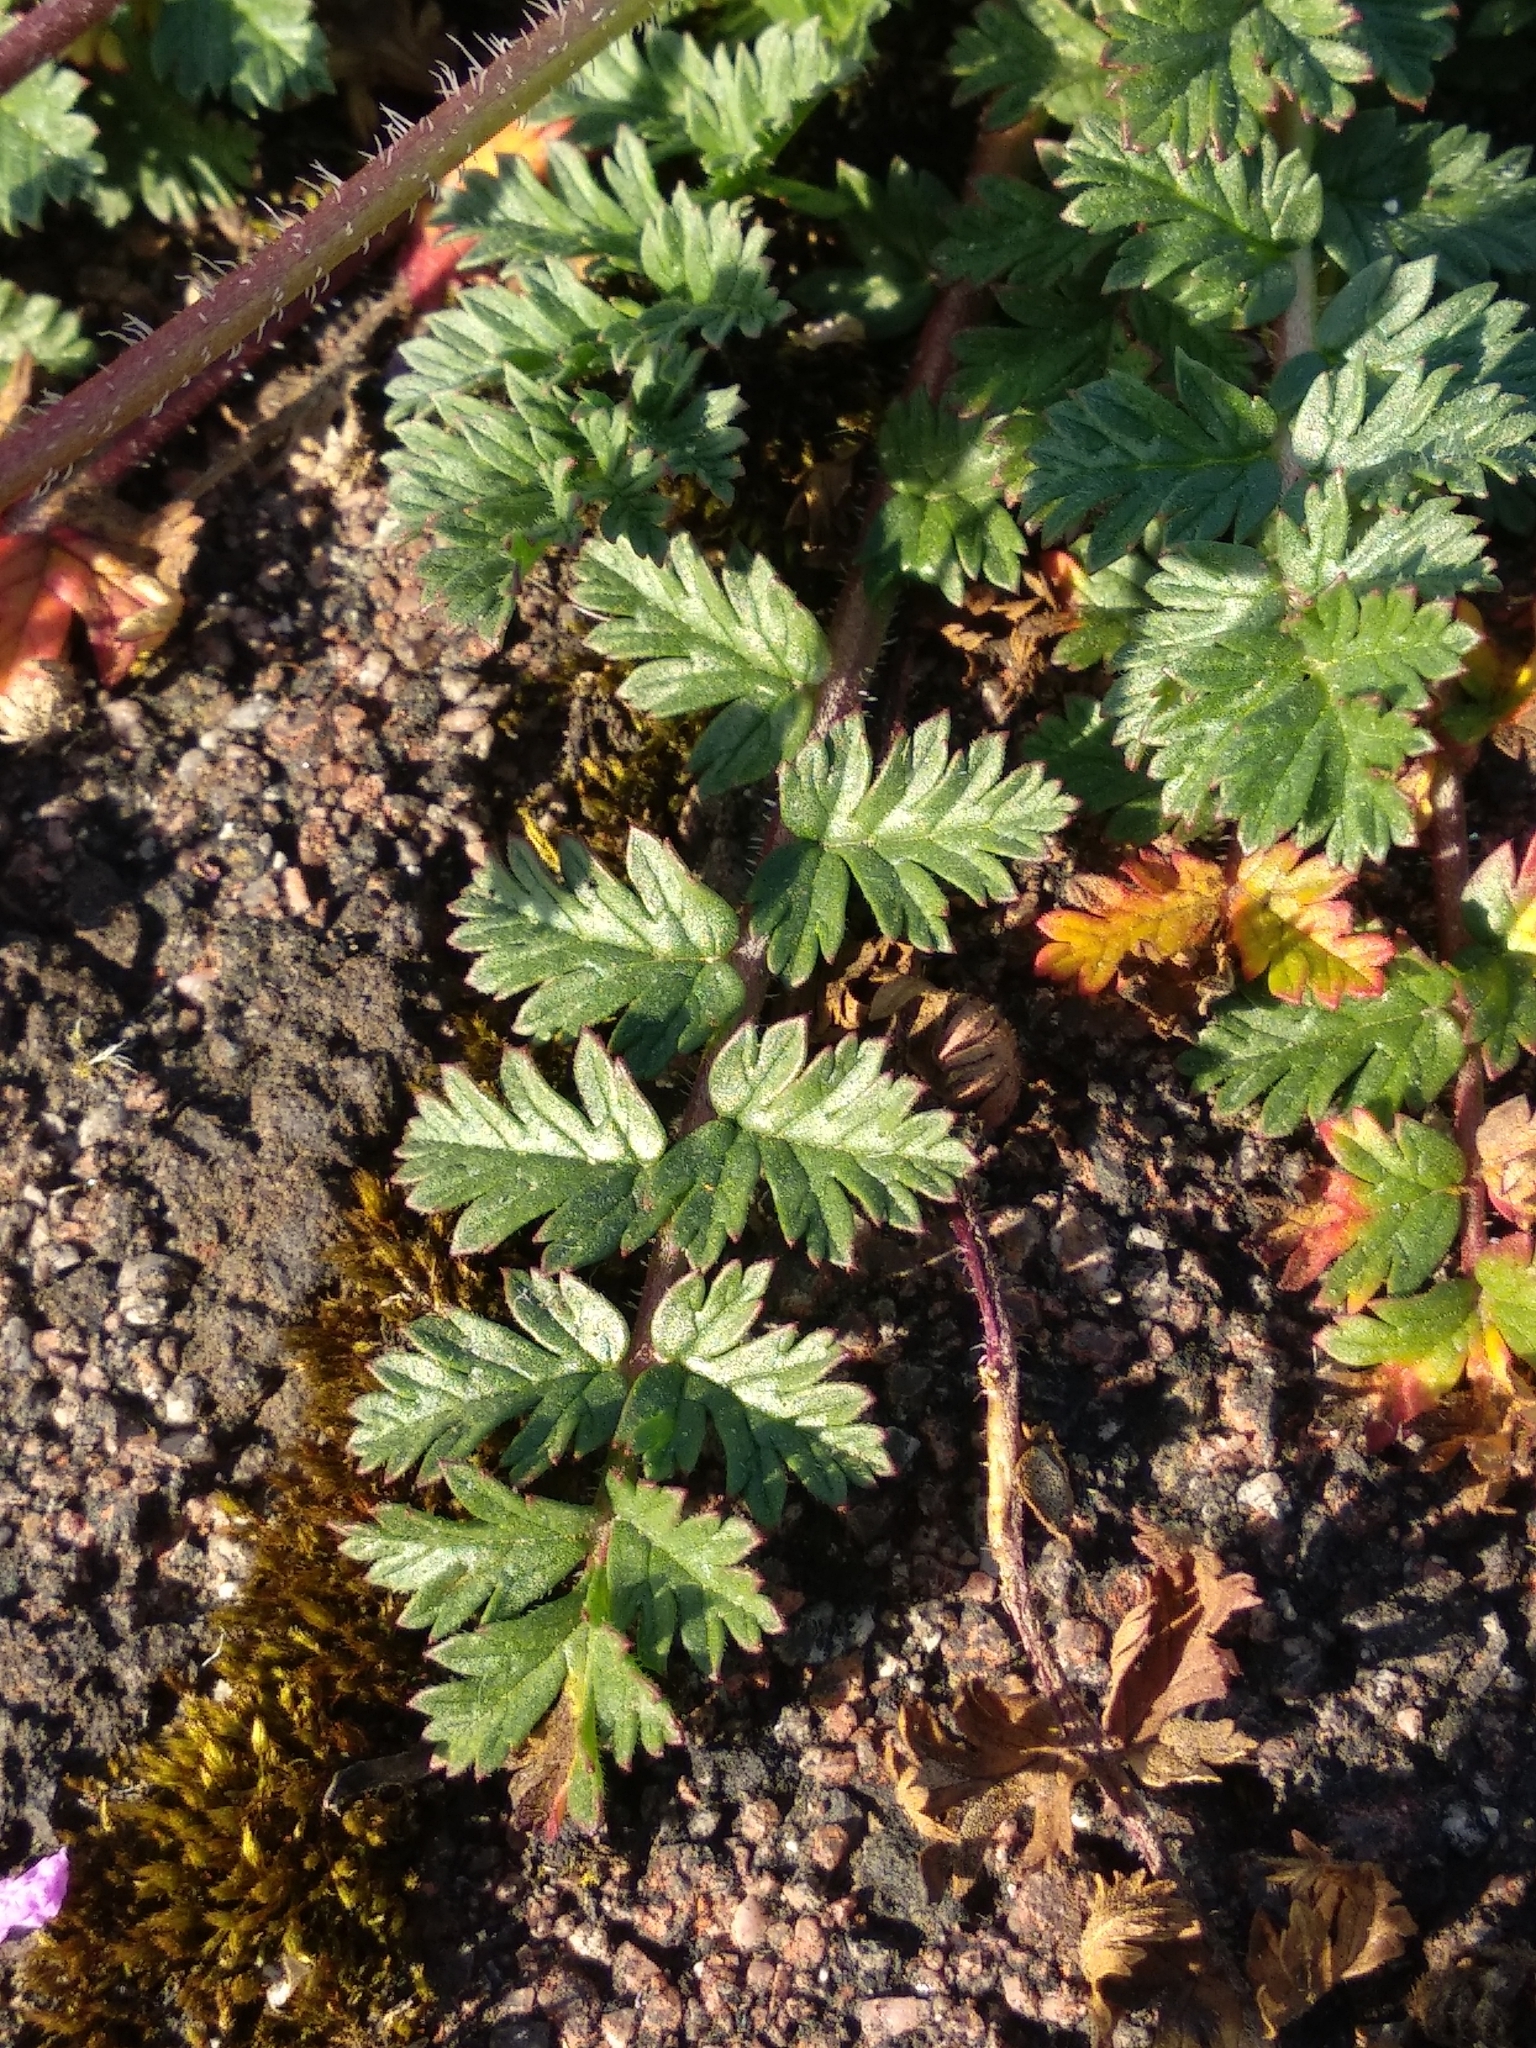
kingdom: Plantae
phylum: Tracheophyta
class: Magnoliopsida
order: Geraniales
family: Geraniaceae
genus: Erodium
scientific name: Erodium cicutarium
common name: Common stork's-bill
